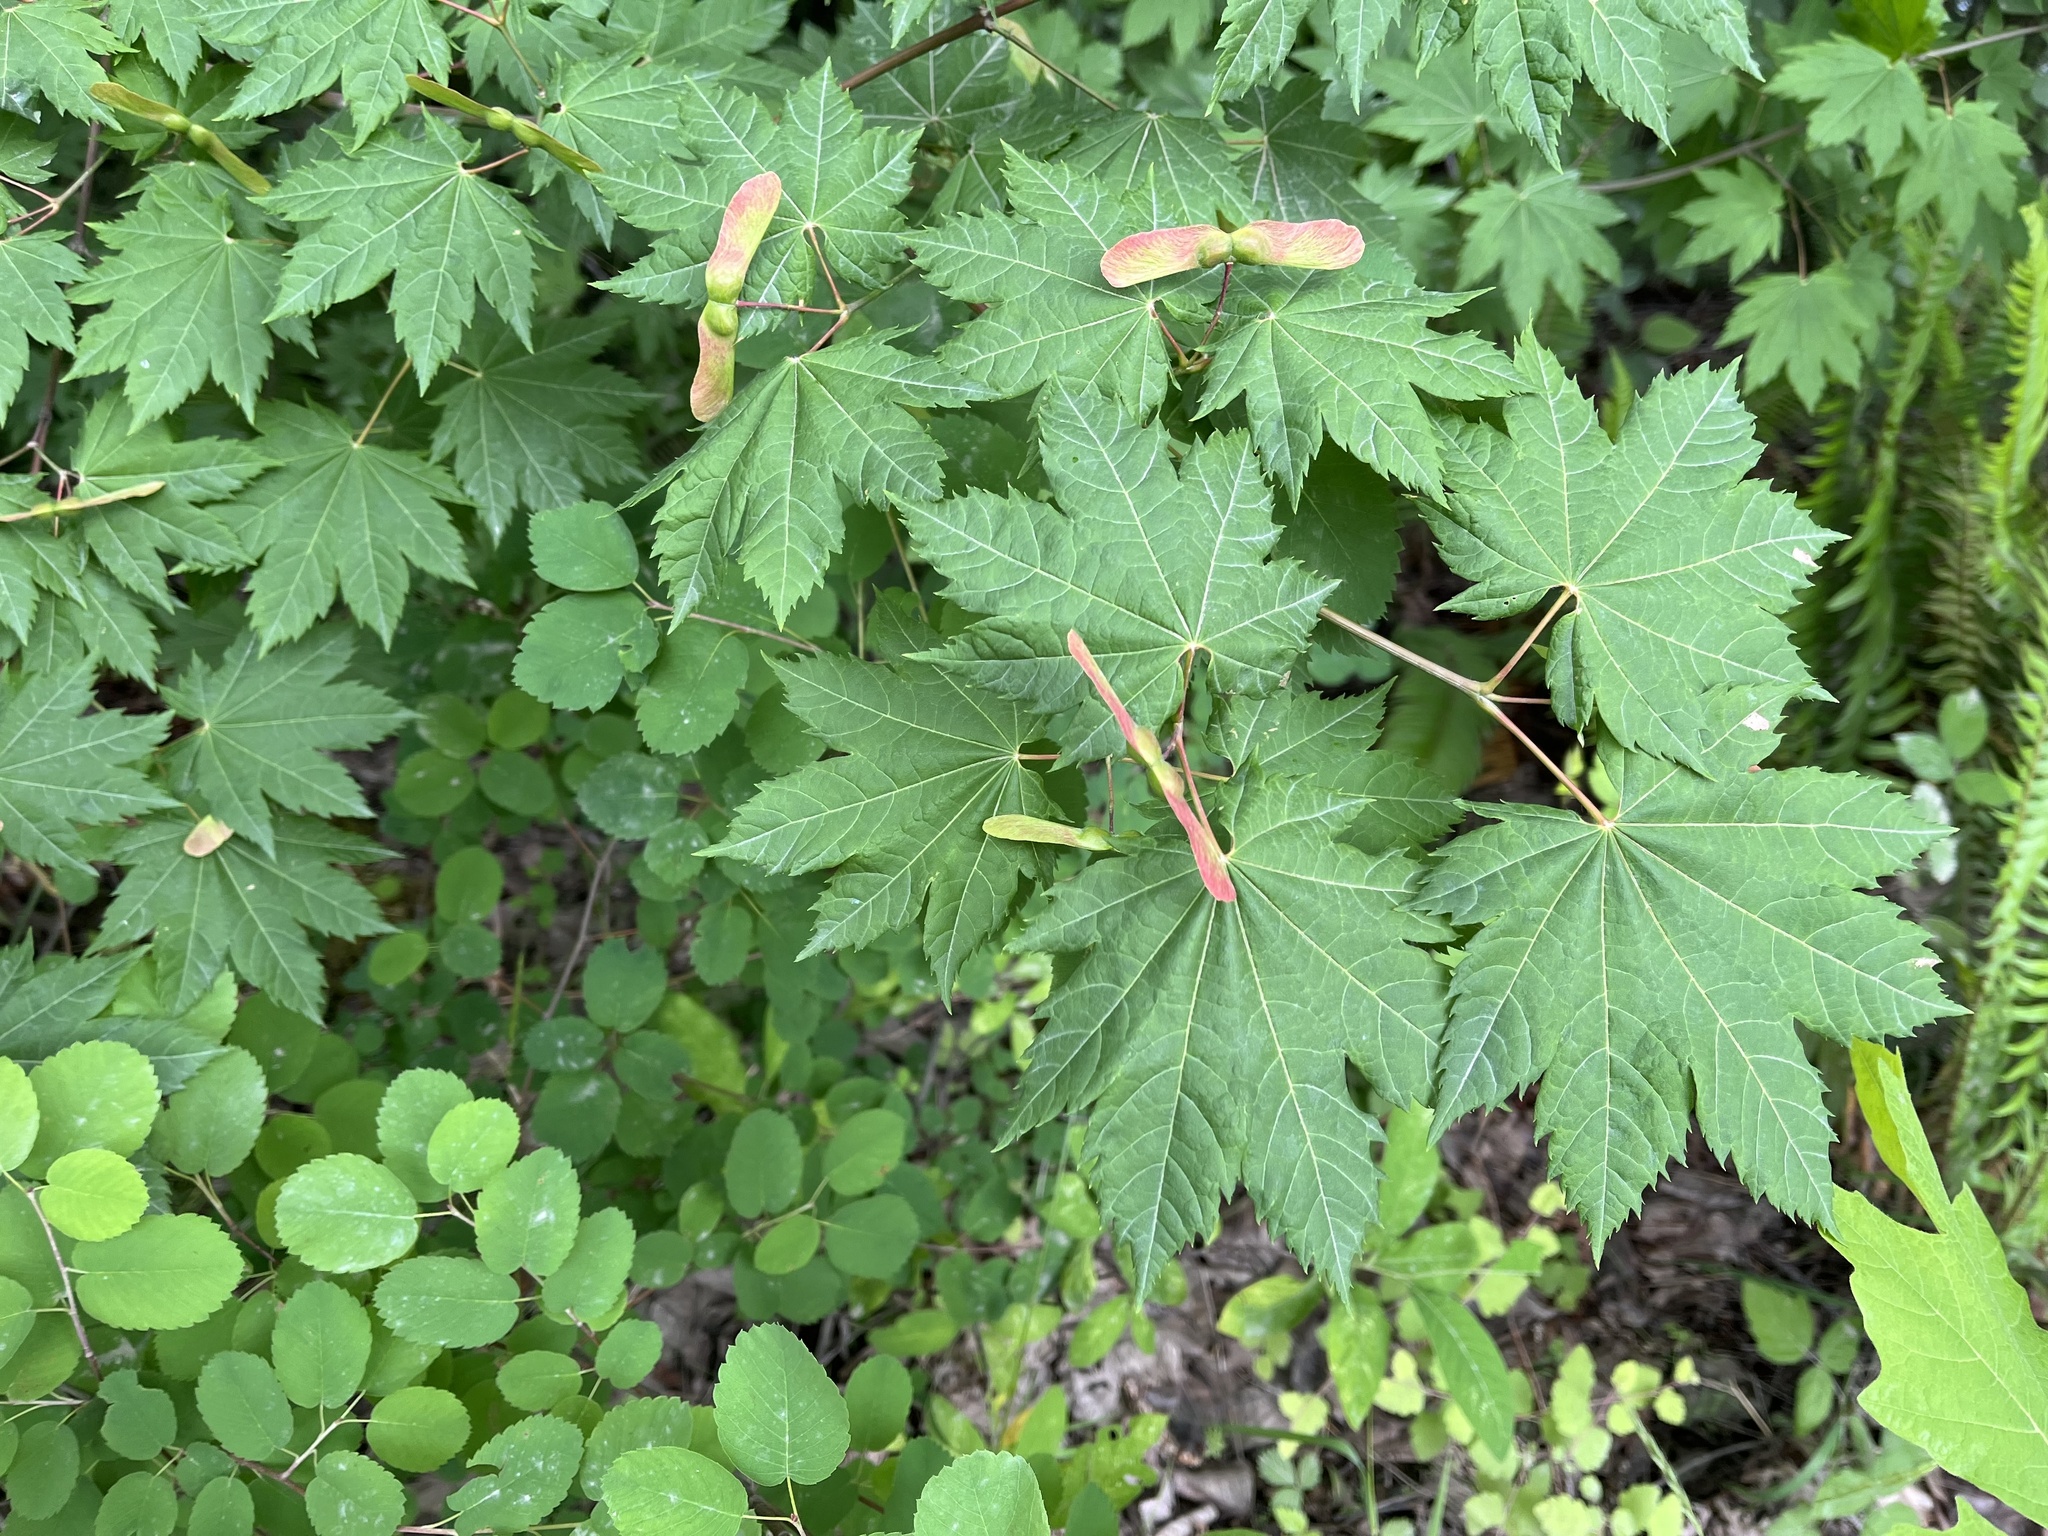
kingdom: Plantae
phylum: Tracheophyta
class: Magnoliopsida
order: Sapindales
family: Sapindaceae
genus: Acer
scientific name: Acer circinatum
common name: Vine maple
